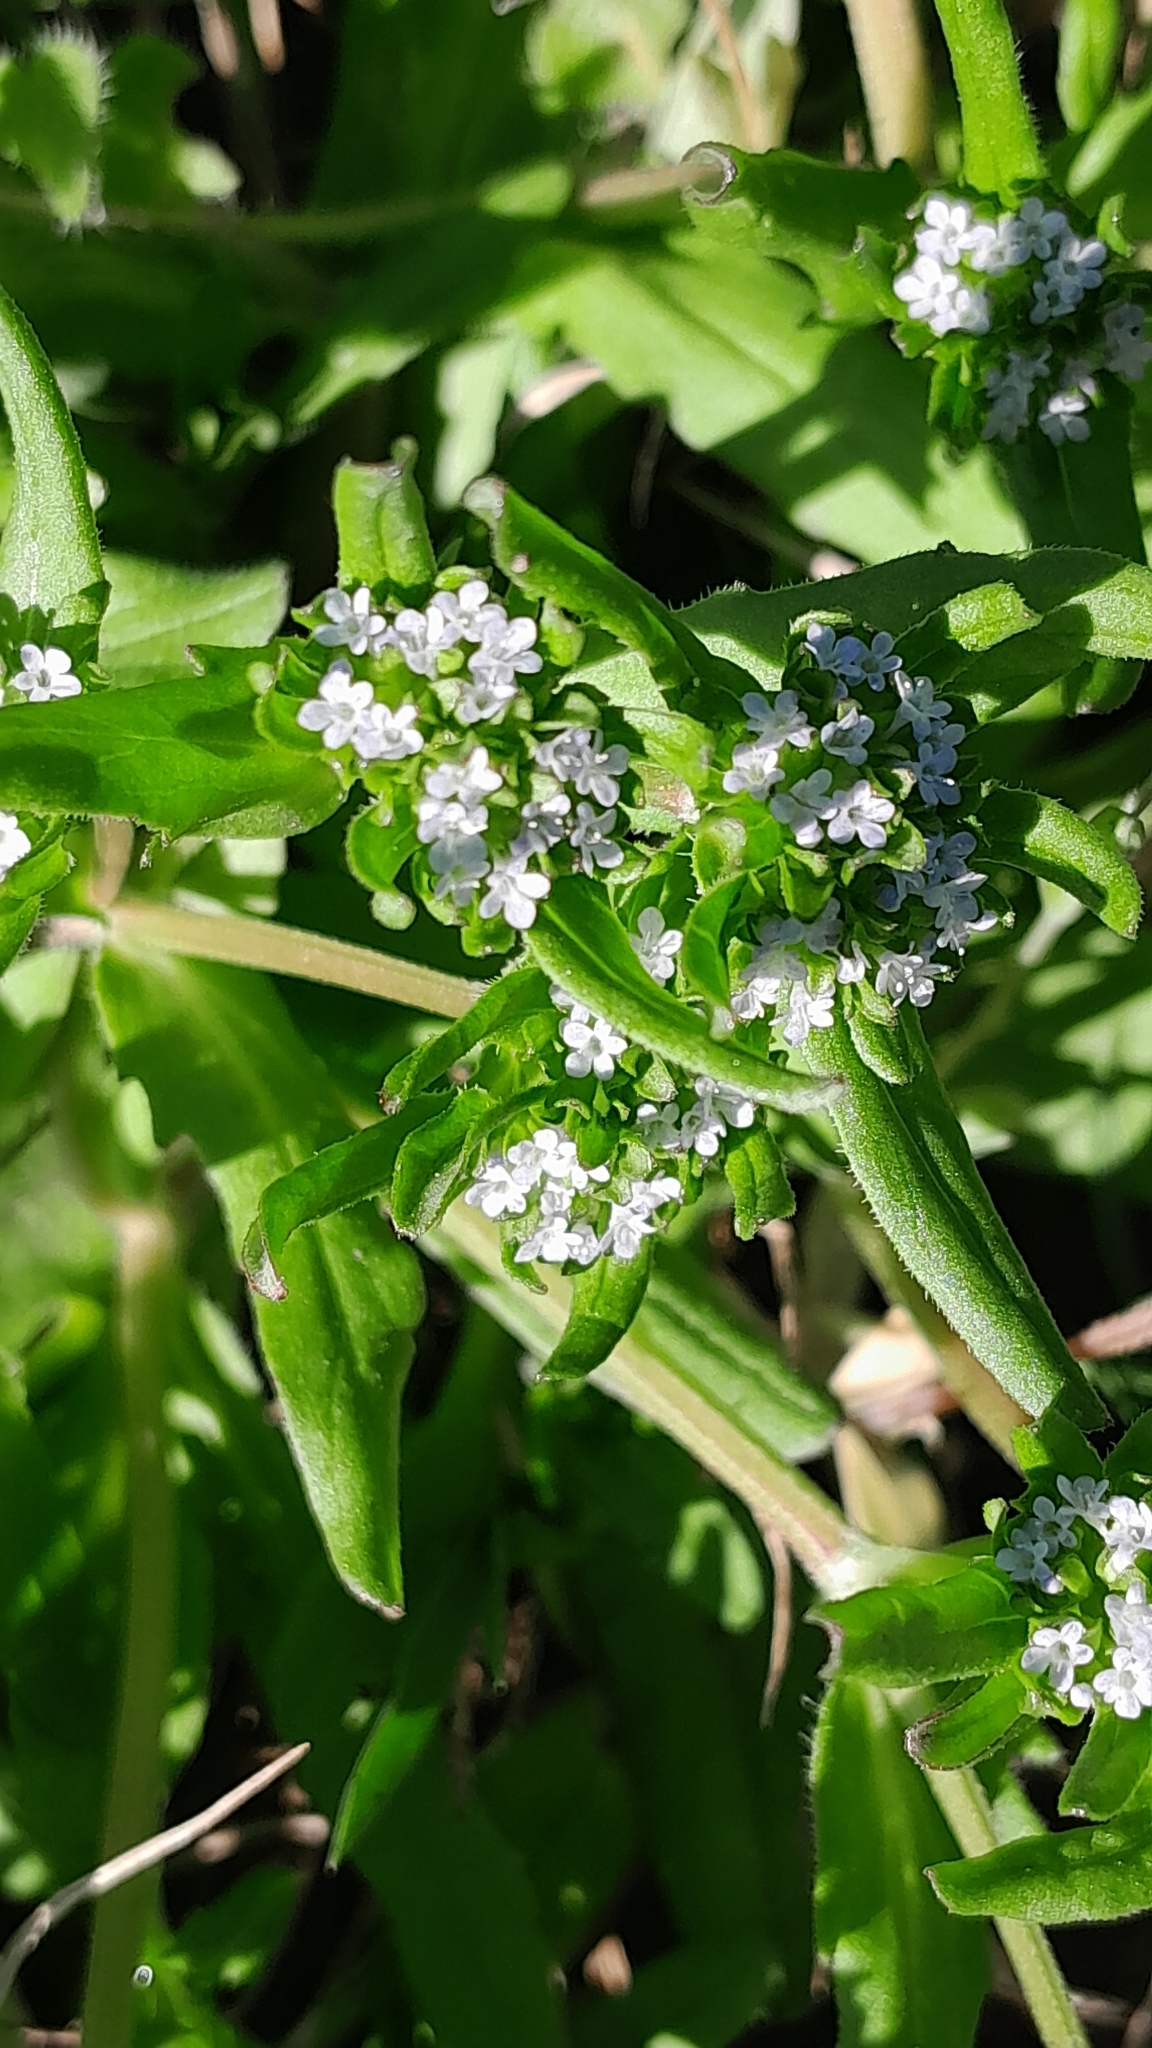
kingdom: Plantae
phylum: Tracheophyta
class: Magnoliopsida
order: Dipsacales
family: Caprifoliaceae
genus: Valerianella
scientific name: Valerianella locusta
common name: Common cornsalad
